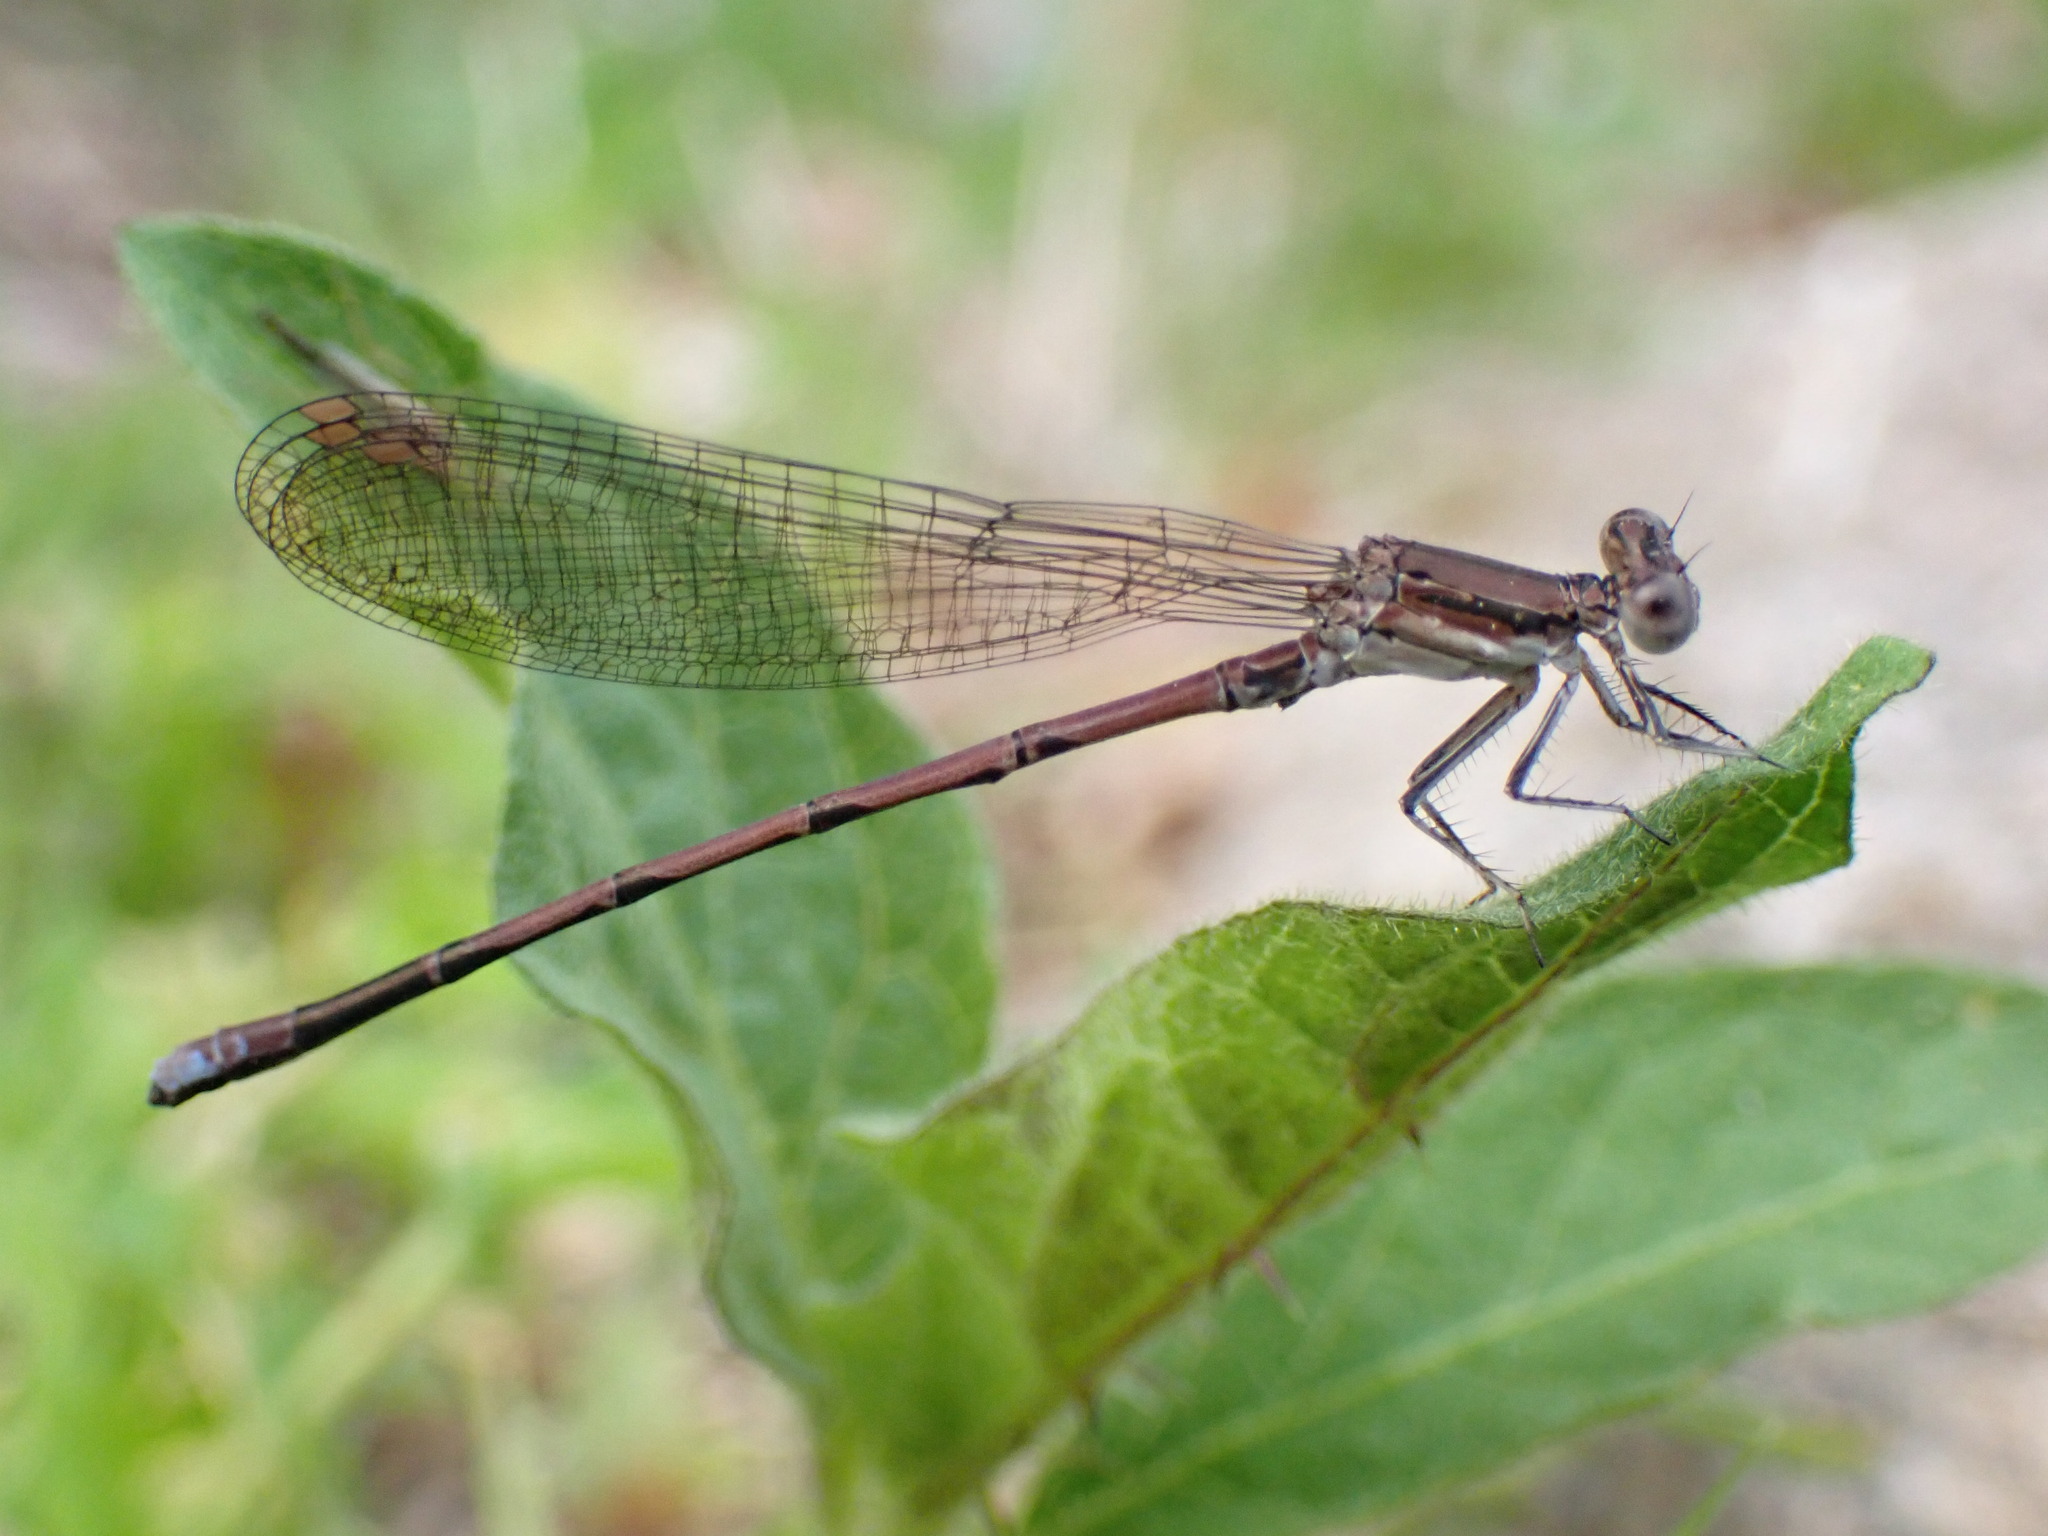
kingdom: Animalia
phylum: Arthropoda
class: Insecta
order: Odonata
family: Coenagrionidae
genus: Argia
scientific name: Argia fumipennis
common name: Variable dancer
